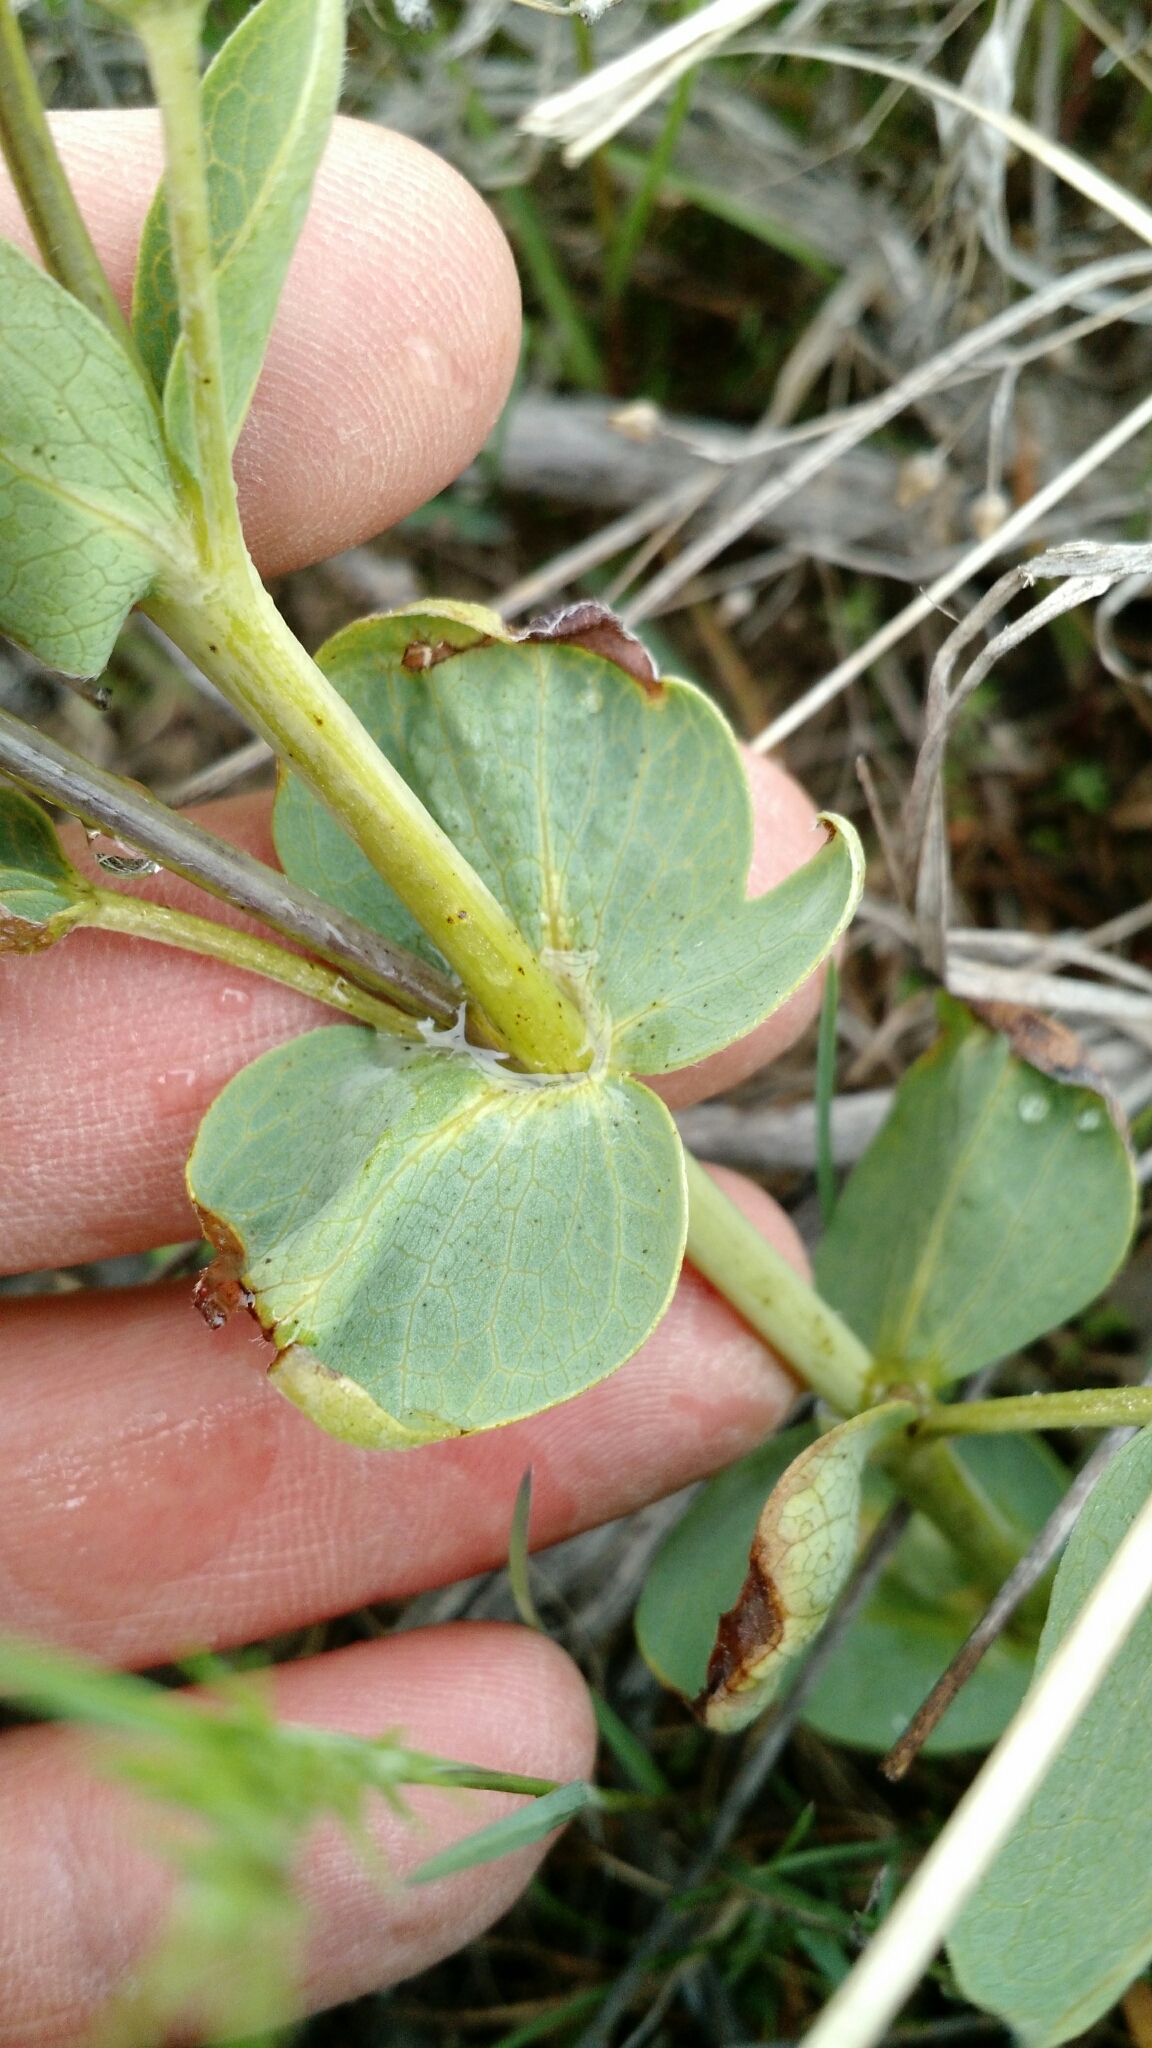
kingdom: Plantae
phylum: Tracheophyta
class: Magnoliopsida
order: Fabales
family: Fabaceae
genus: Thermopsis
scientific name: Thermopsis rhombifolia
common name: Circle-pod-pea
